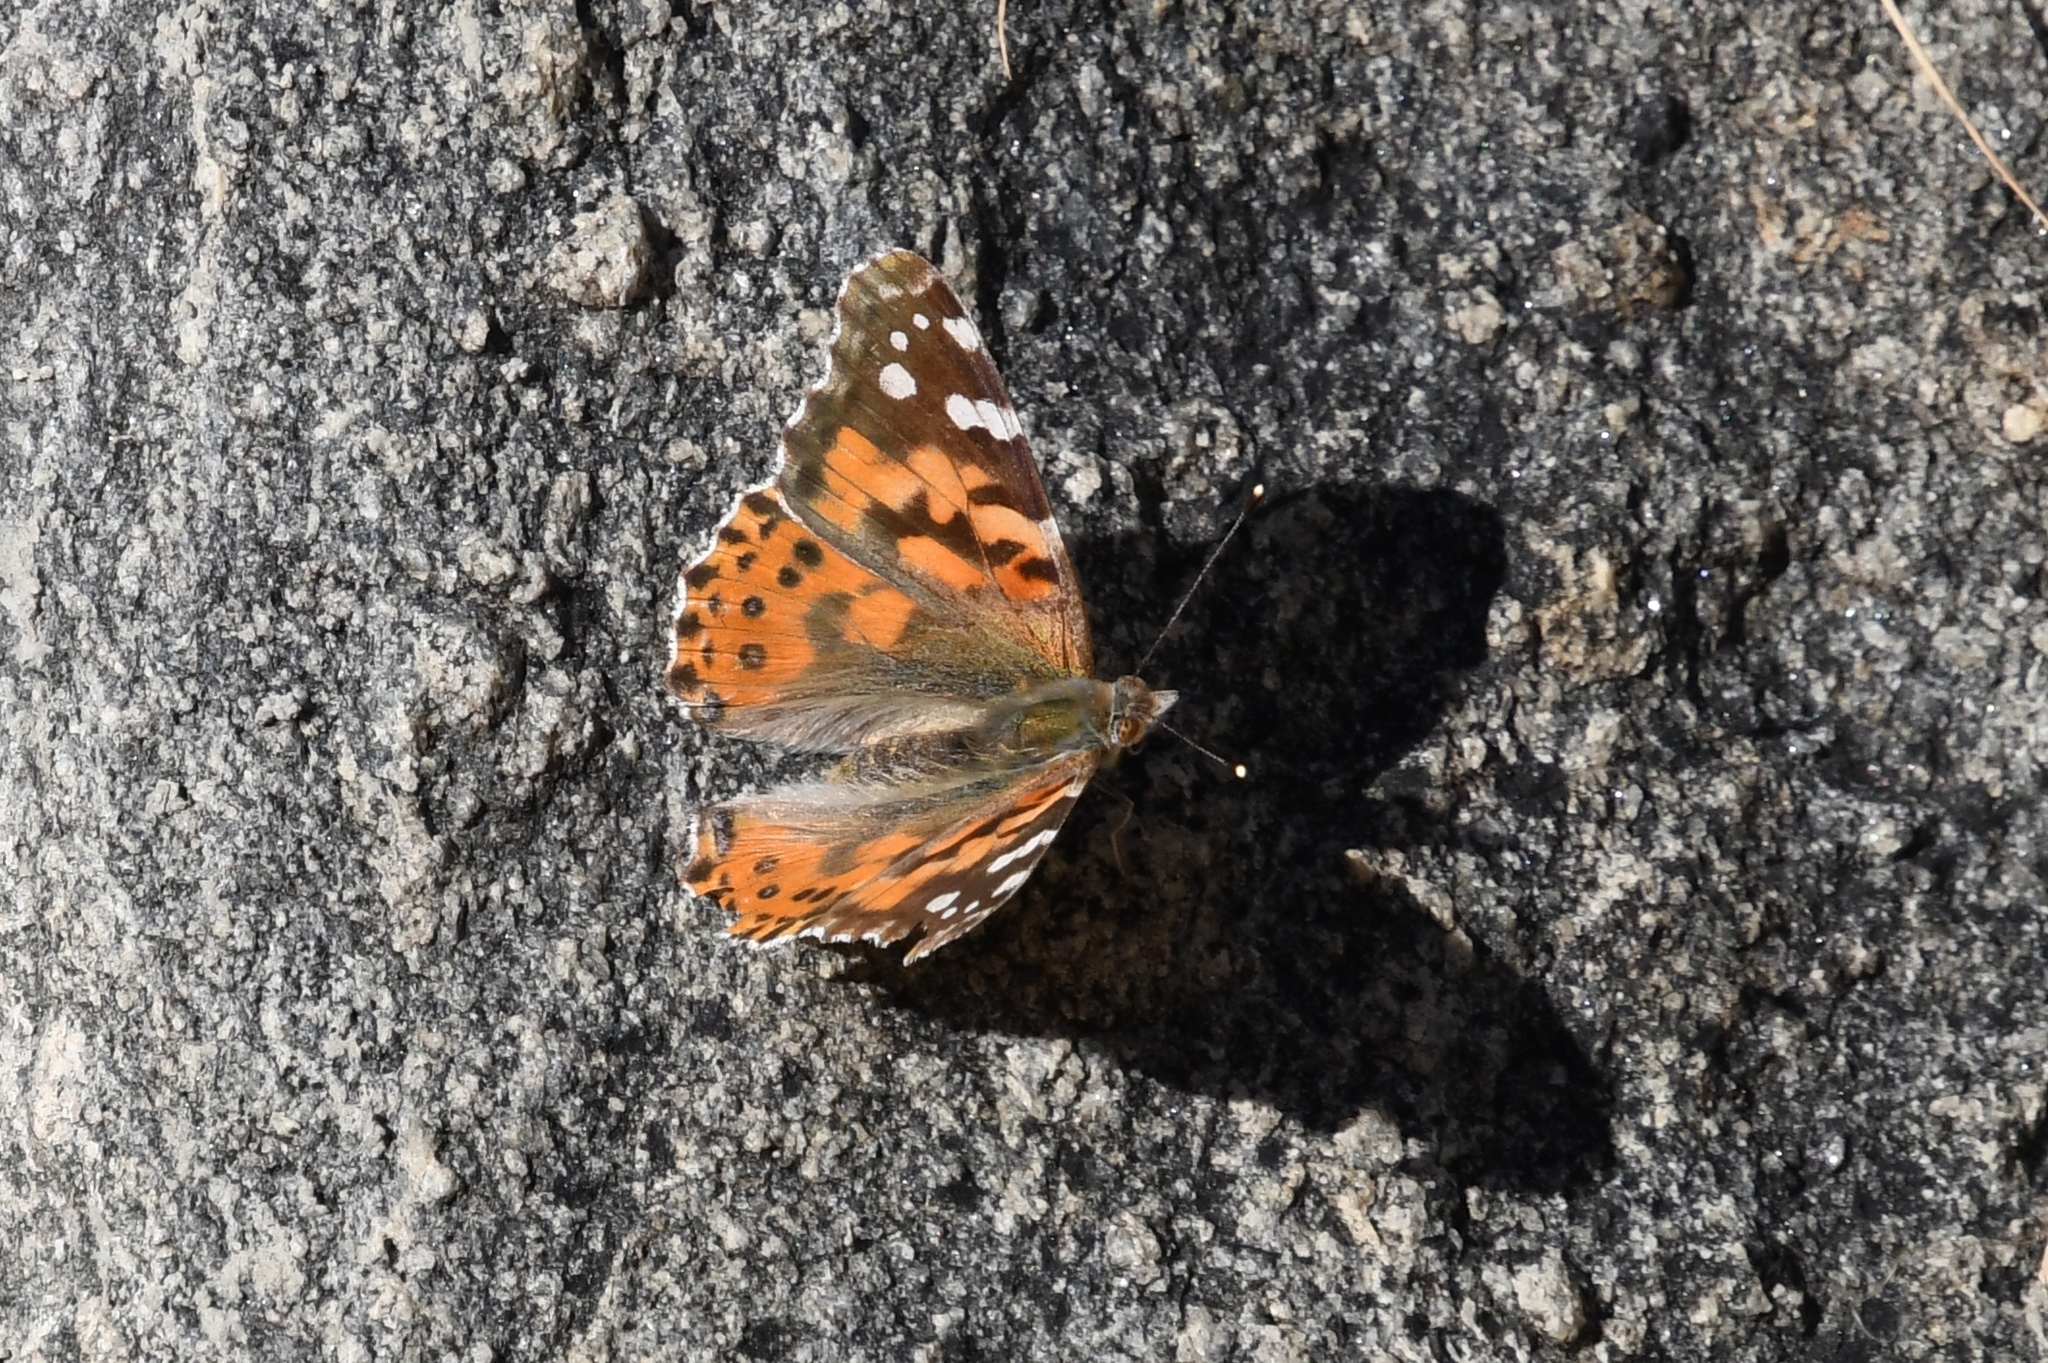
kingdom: Animalia
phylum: Arthropoda
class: Insecta
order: Lepidoptera
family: Nymphalidae
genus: Vanessa
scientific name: Vanessa cardui
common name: Painted lady
